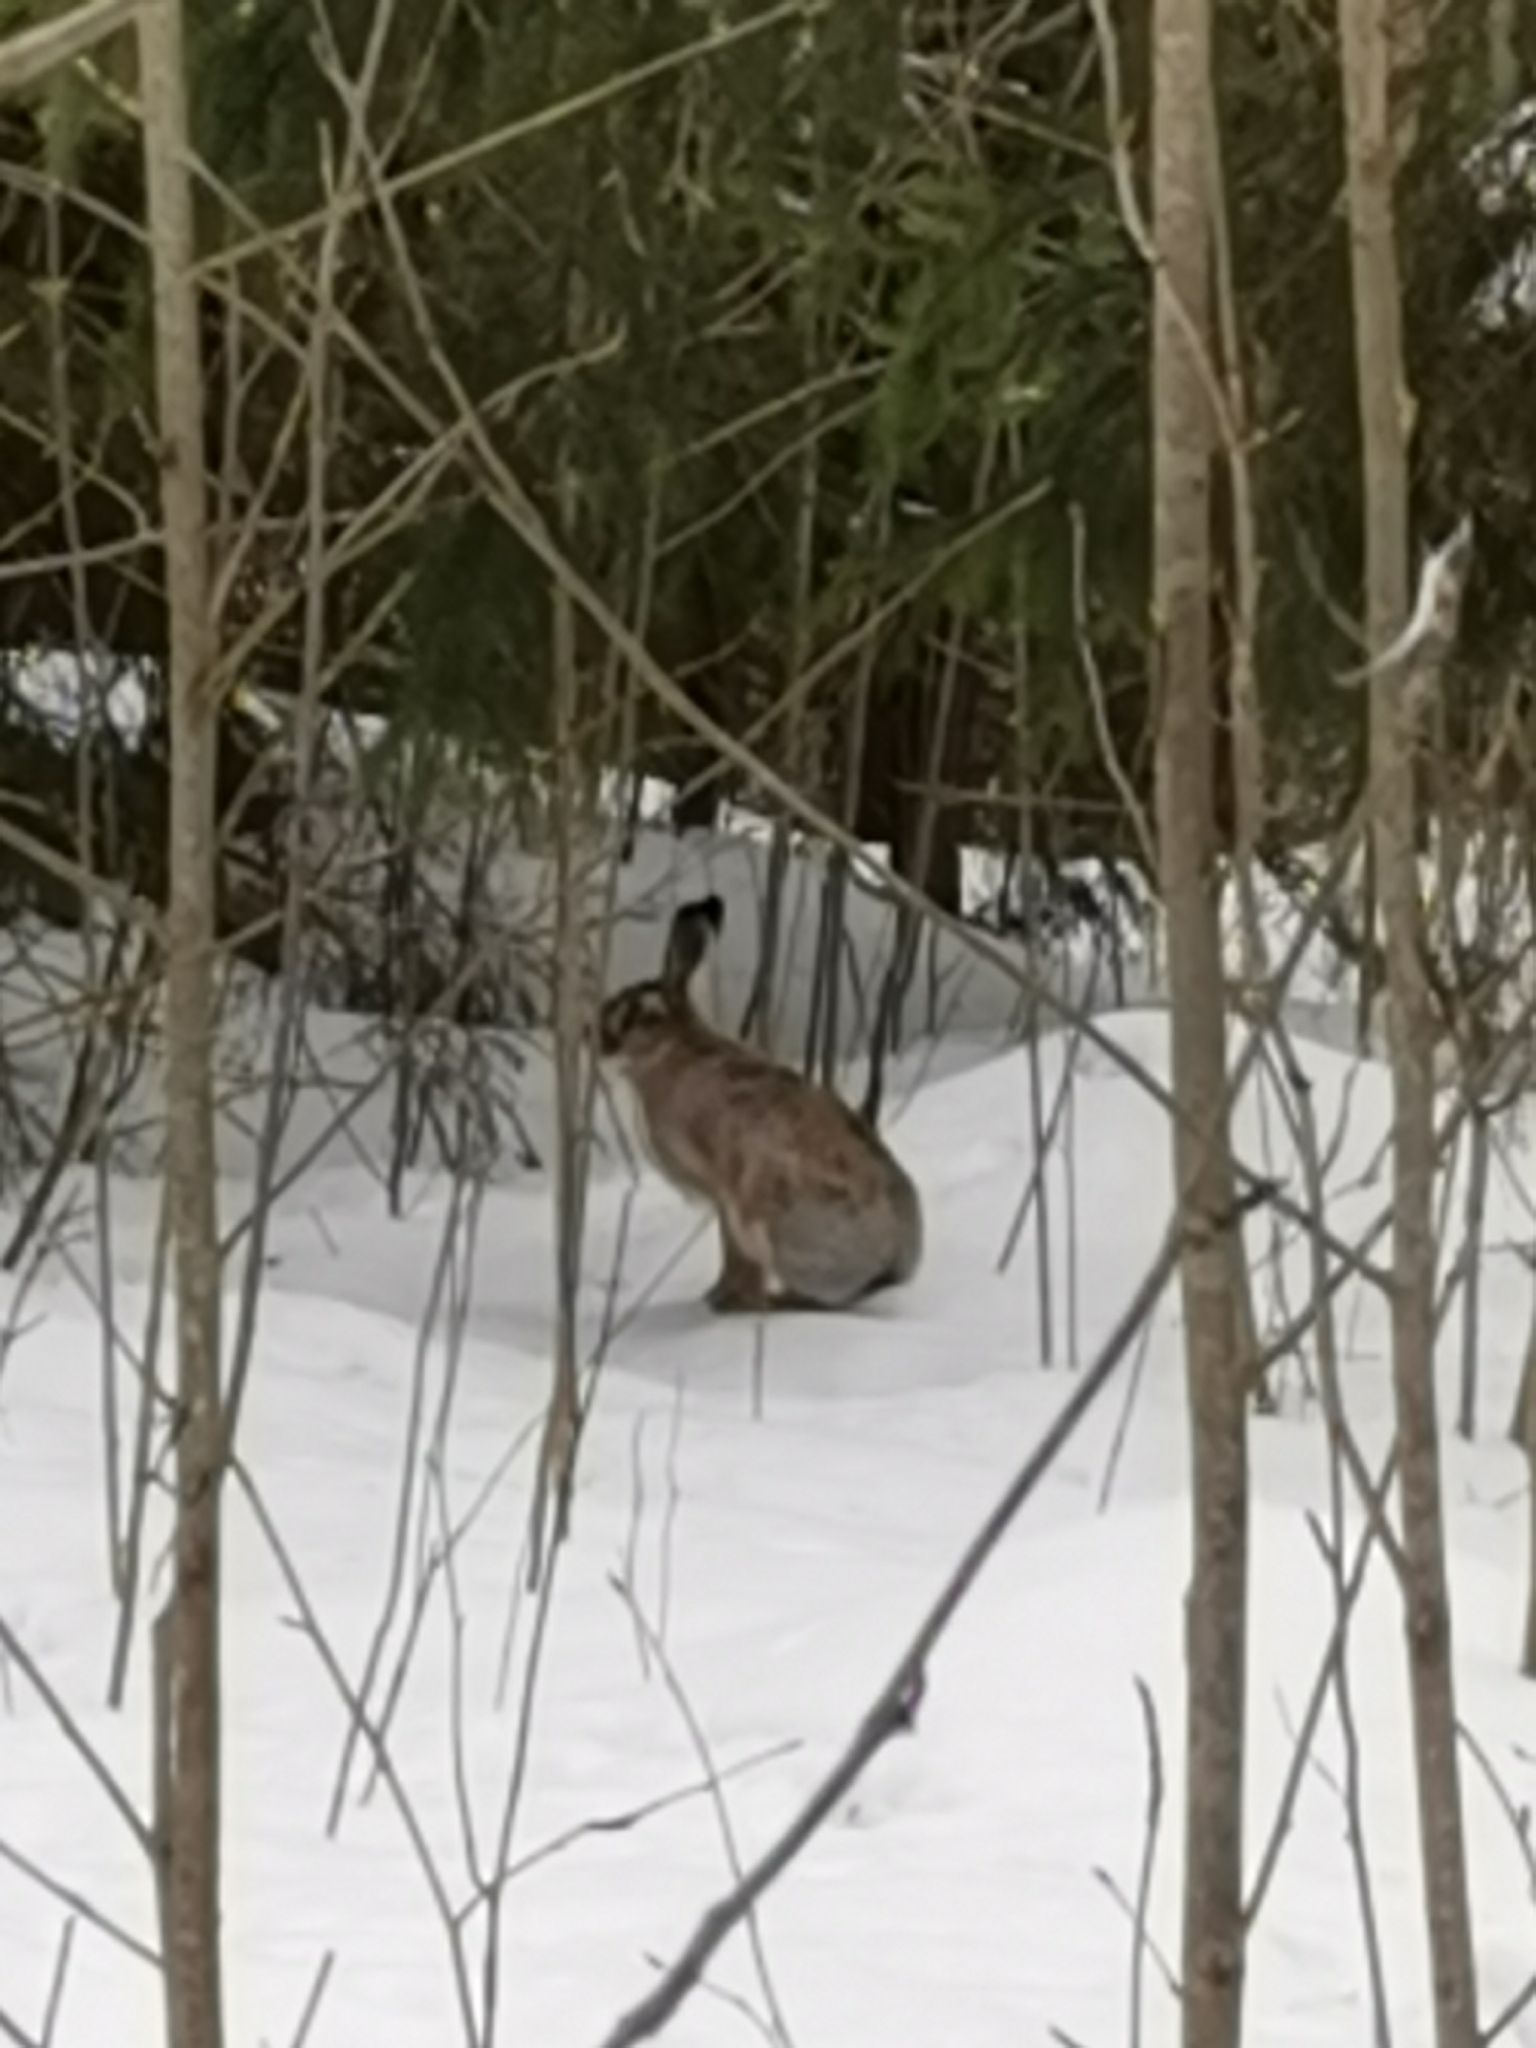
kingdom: Animalia
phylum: Chordata
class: Mammalia
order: Lagomorpha
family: Leporidae
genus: Lepus
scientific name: Lepus europaeus
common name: European hare
